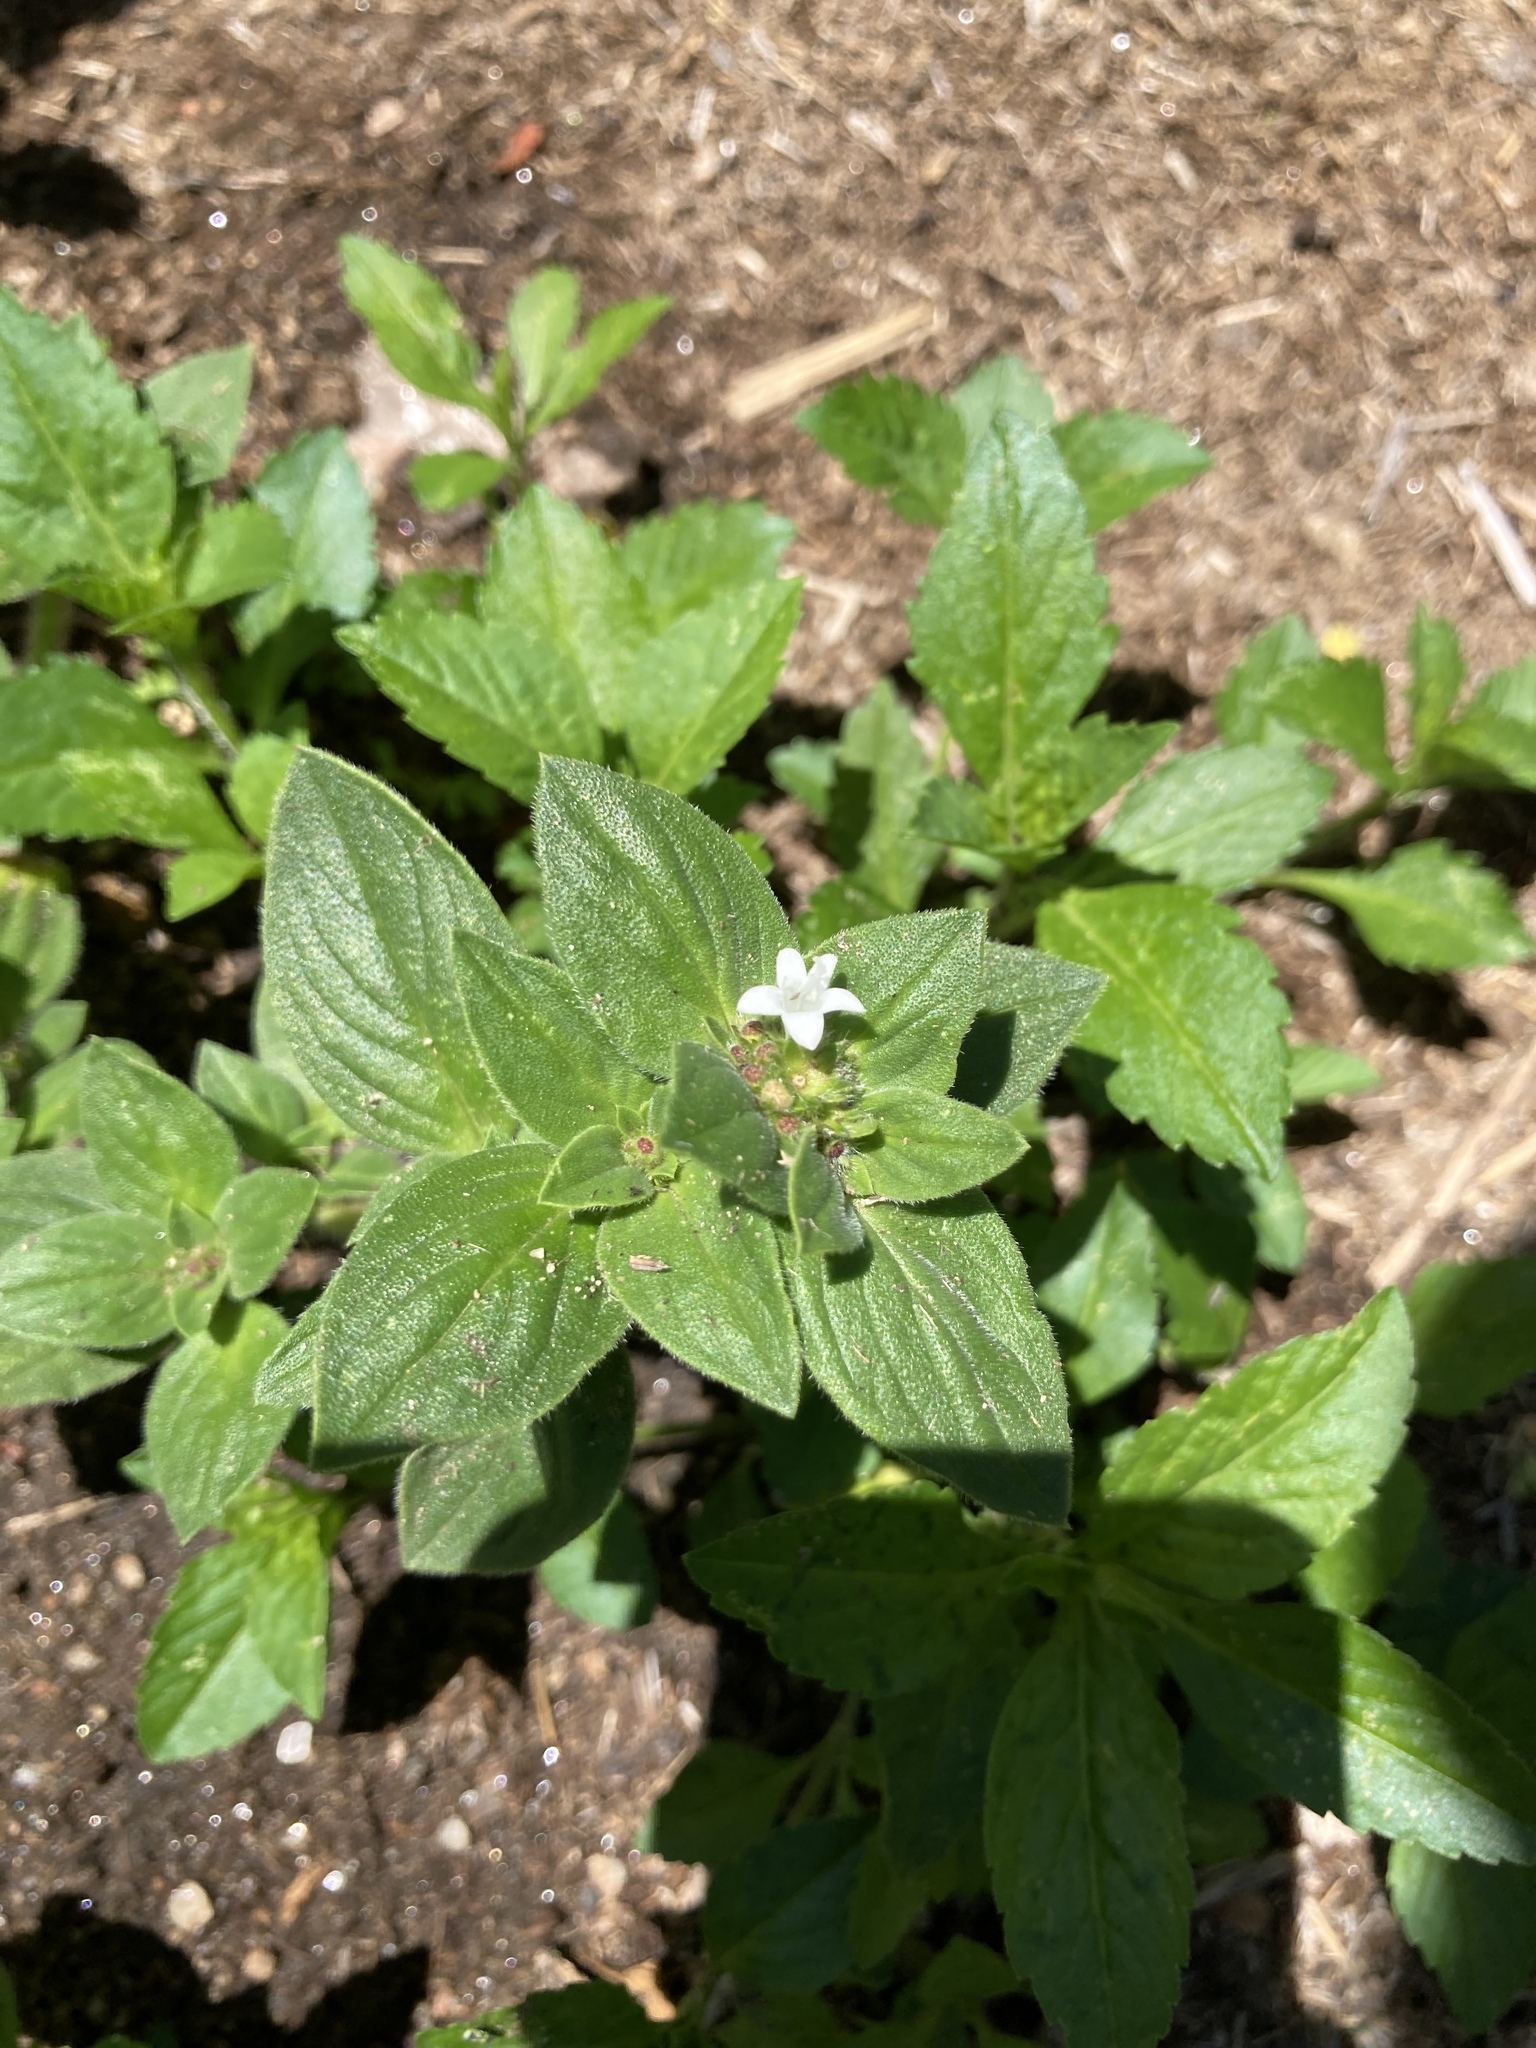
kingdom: Plantae
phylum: Tracheophyta
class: Magnoliopsida
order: Gentianales
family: Rubiaceae
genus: Richardia
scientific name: Richardia brasiliensis
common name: Tropical mexican clover
